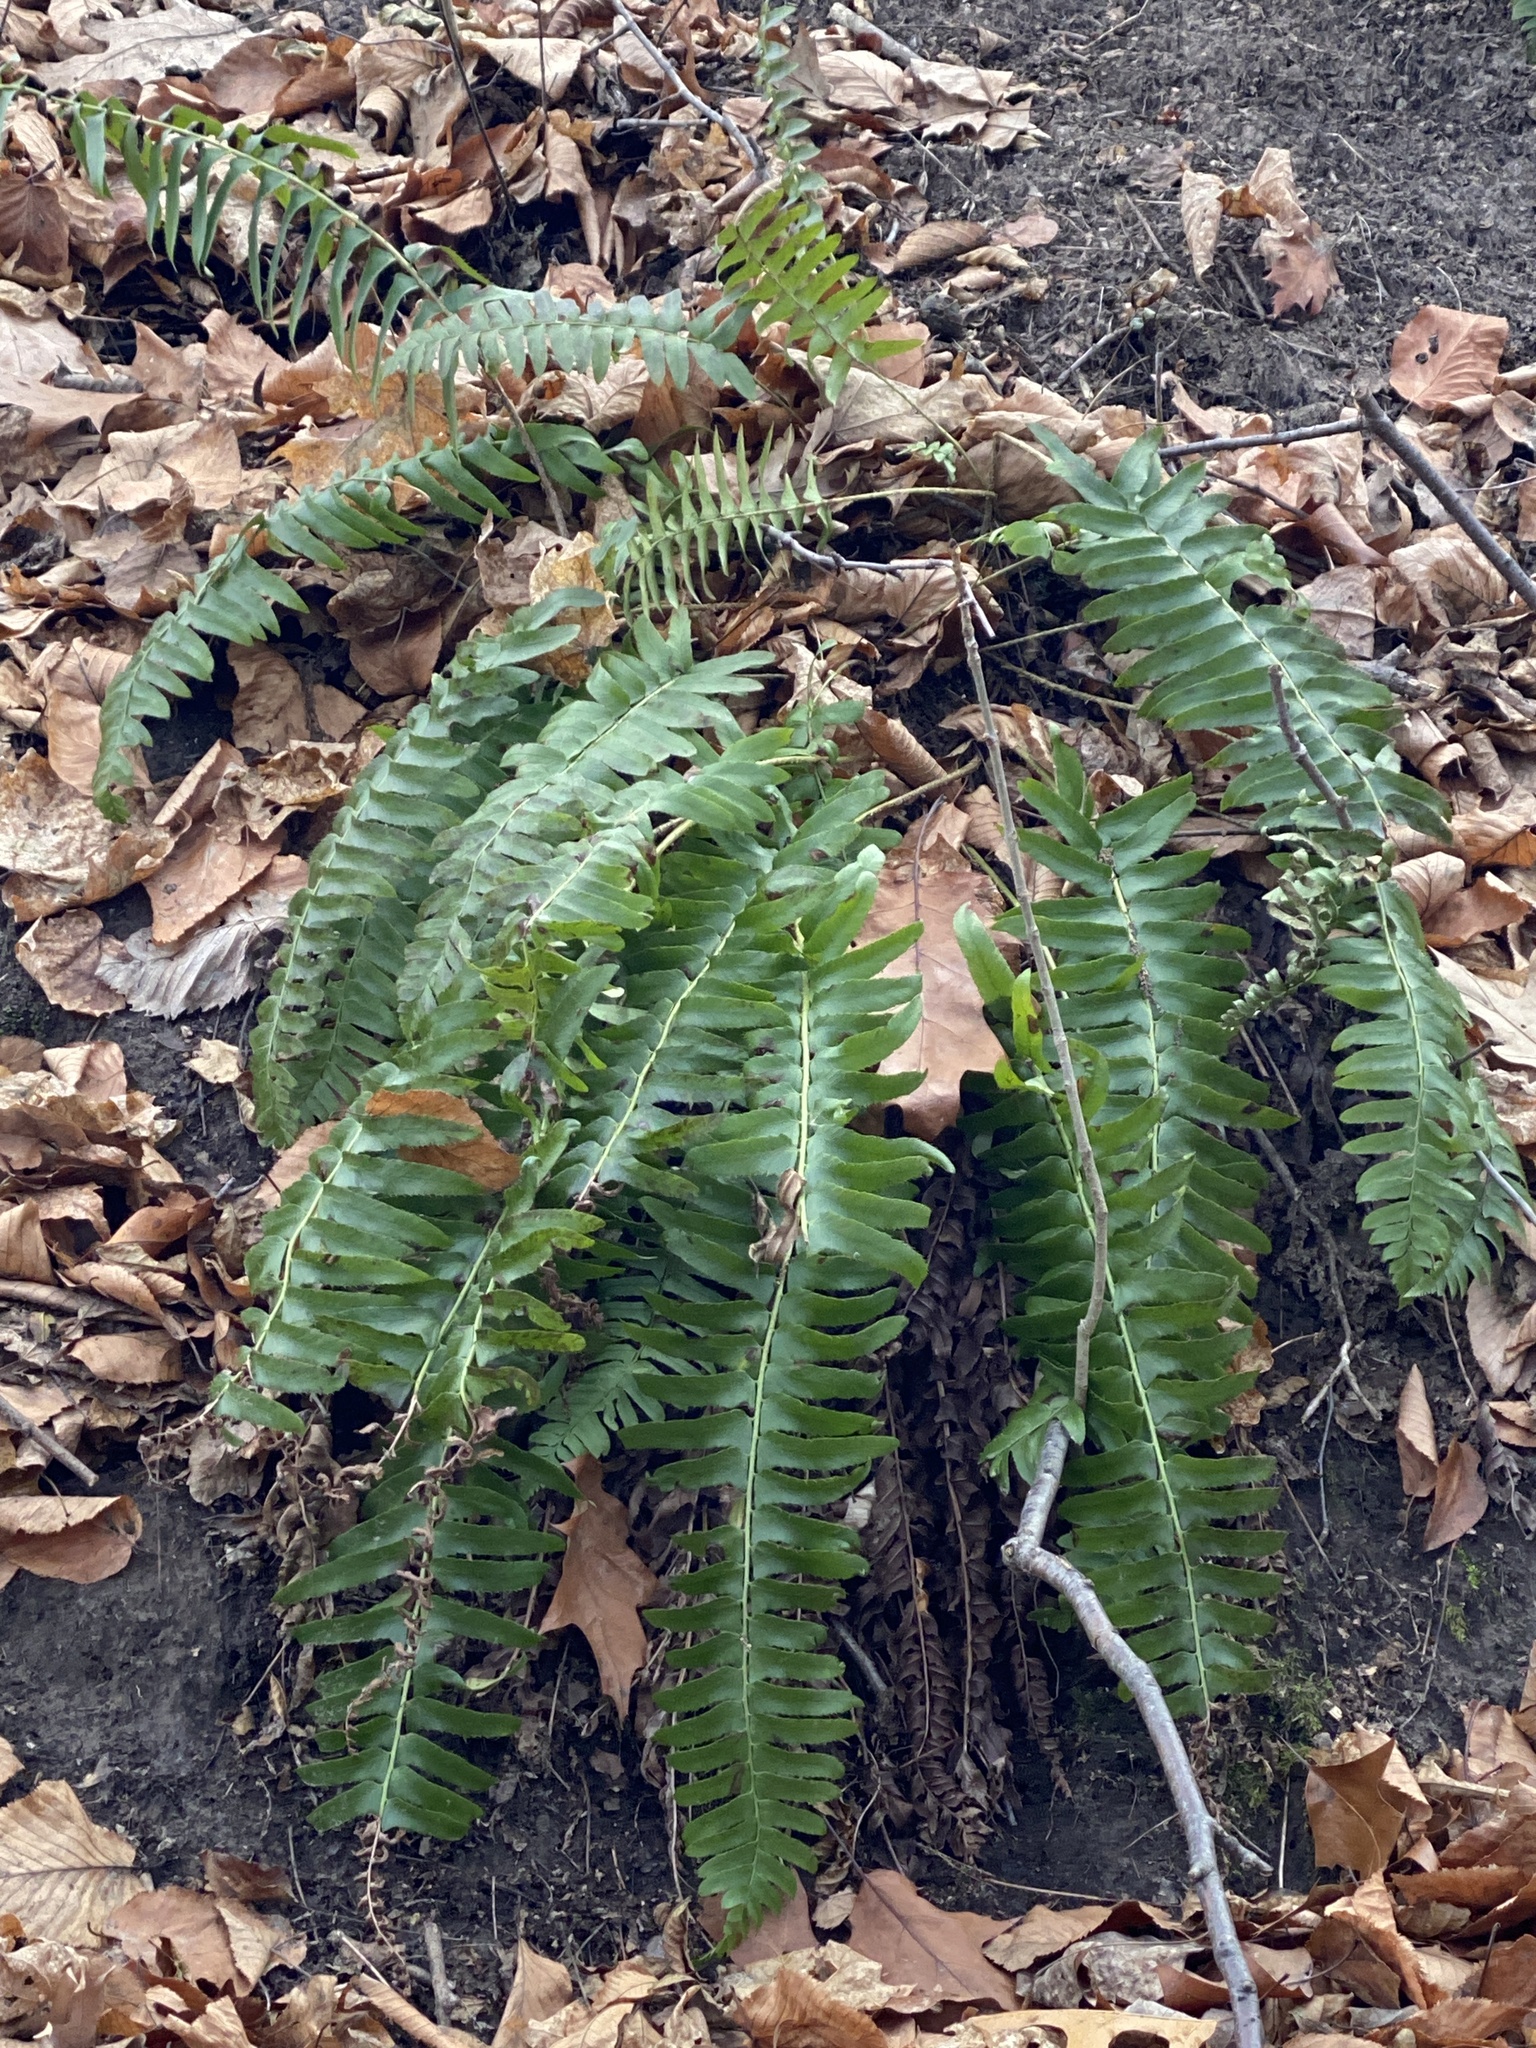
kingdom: Plantae
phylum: Tracheophyta
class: Polypodiopsida
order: Polypodiales
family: Dryopteridaceae
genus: Polystichum
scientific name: Polystichum acrostichoides
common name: Christmas fern
